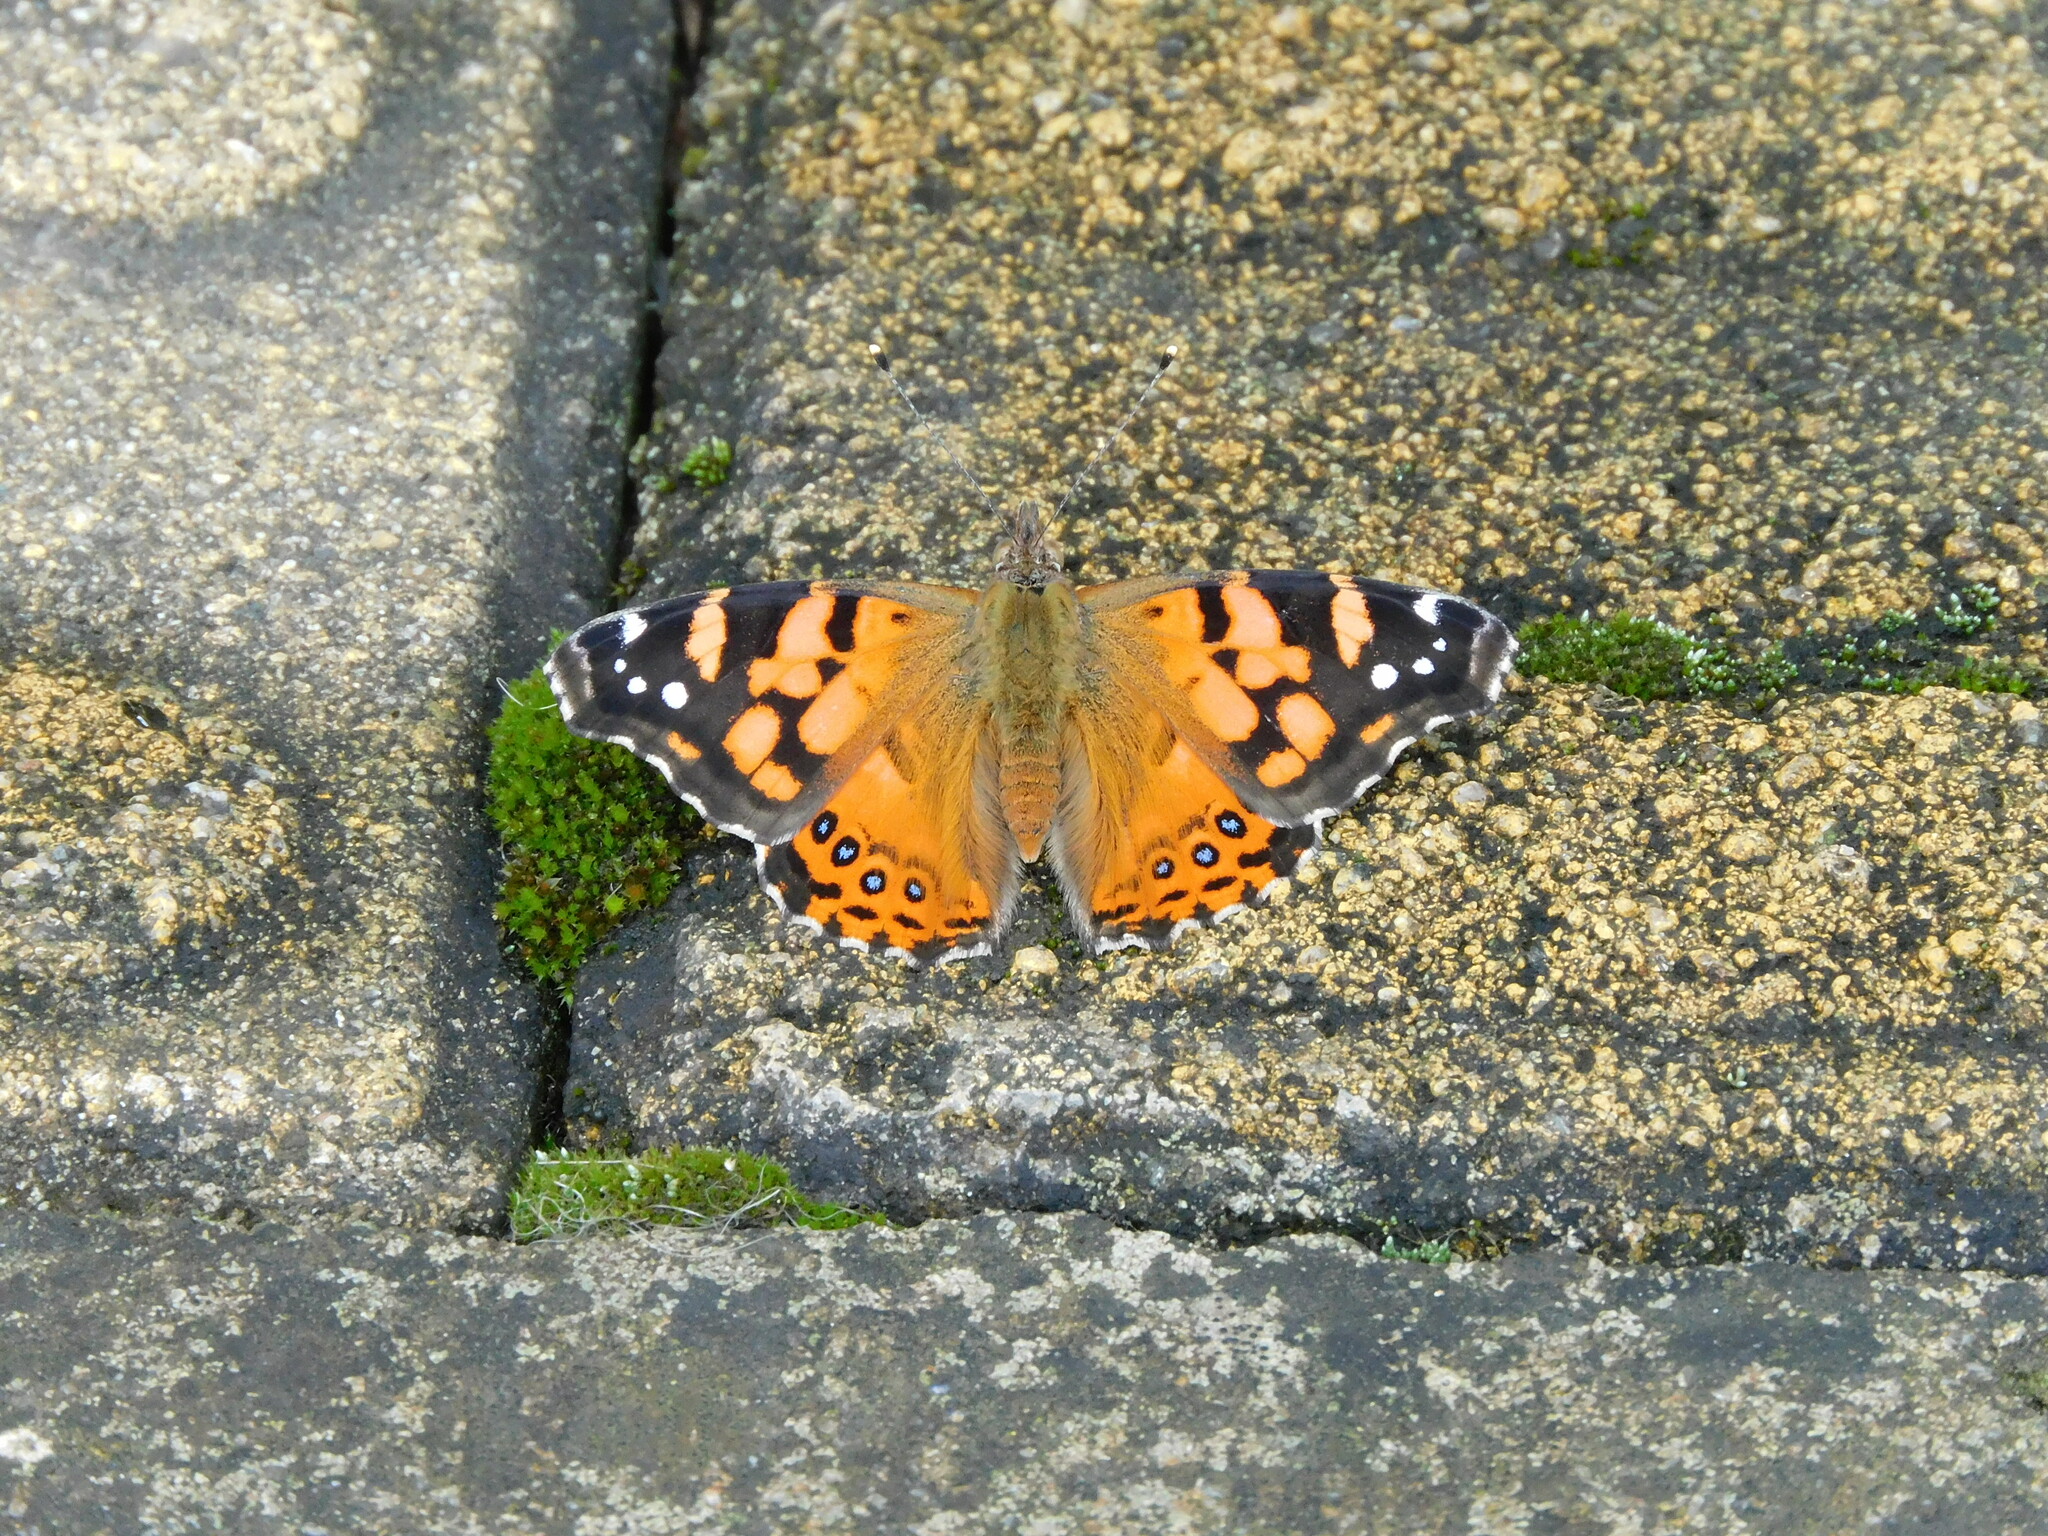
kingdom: Animalia
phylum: Arthropoda
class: Insecta
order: Lepidoptera
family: Nymphalidae
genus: Vanessa
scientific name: Vanessa carye
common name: Subtropical lady
